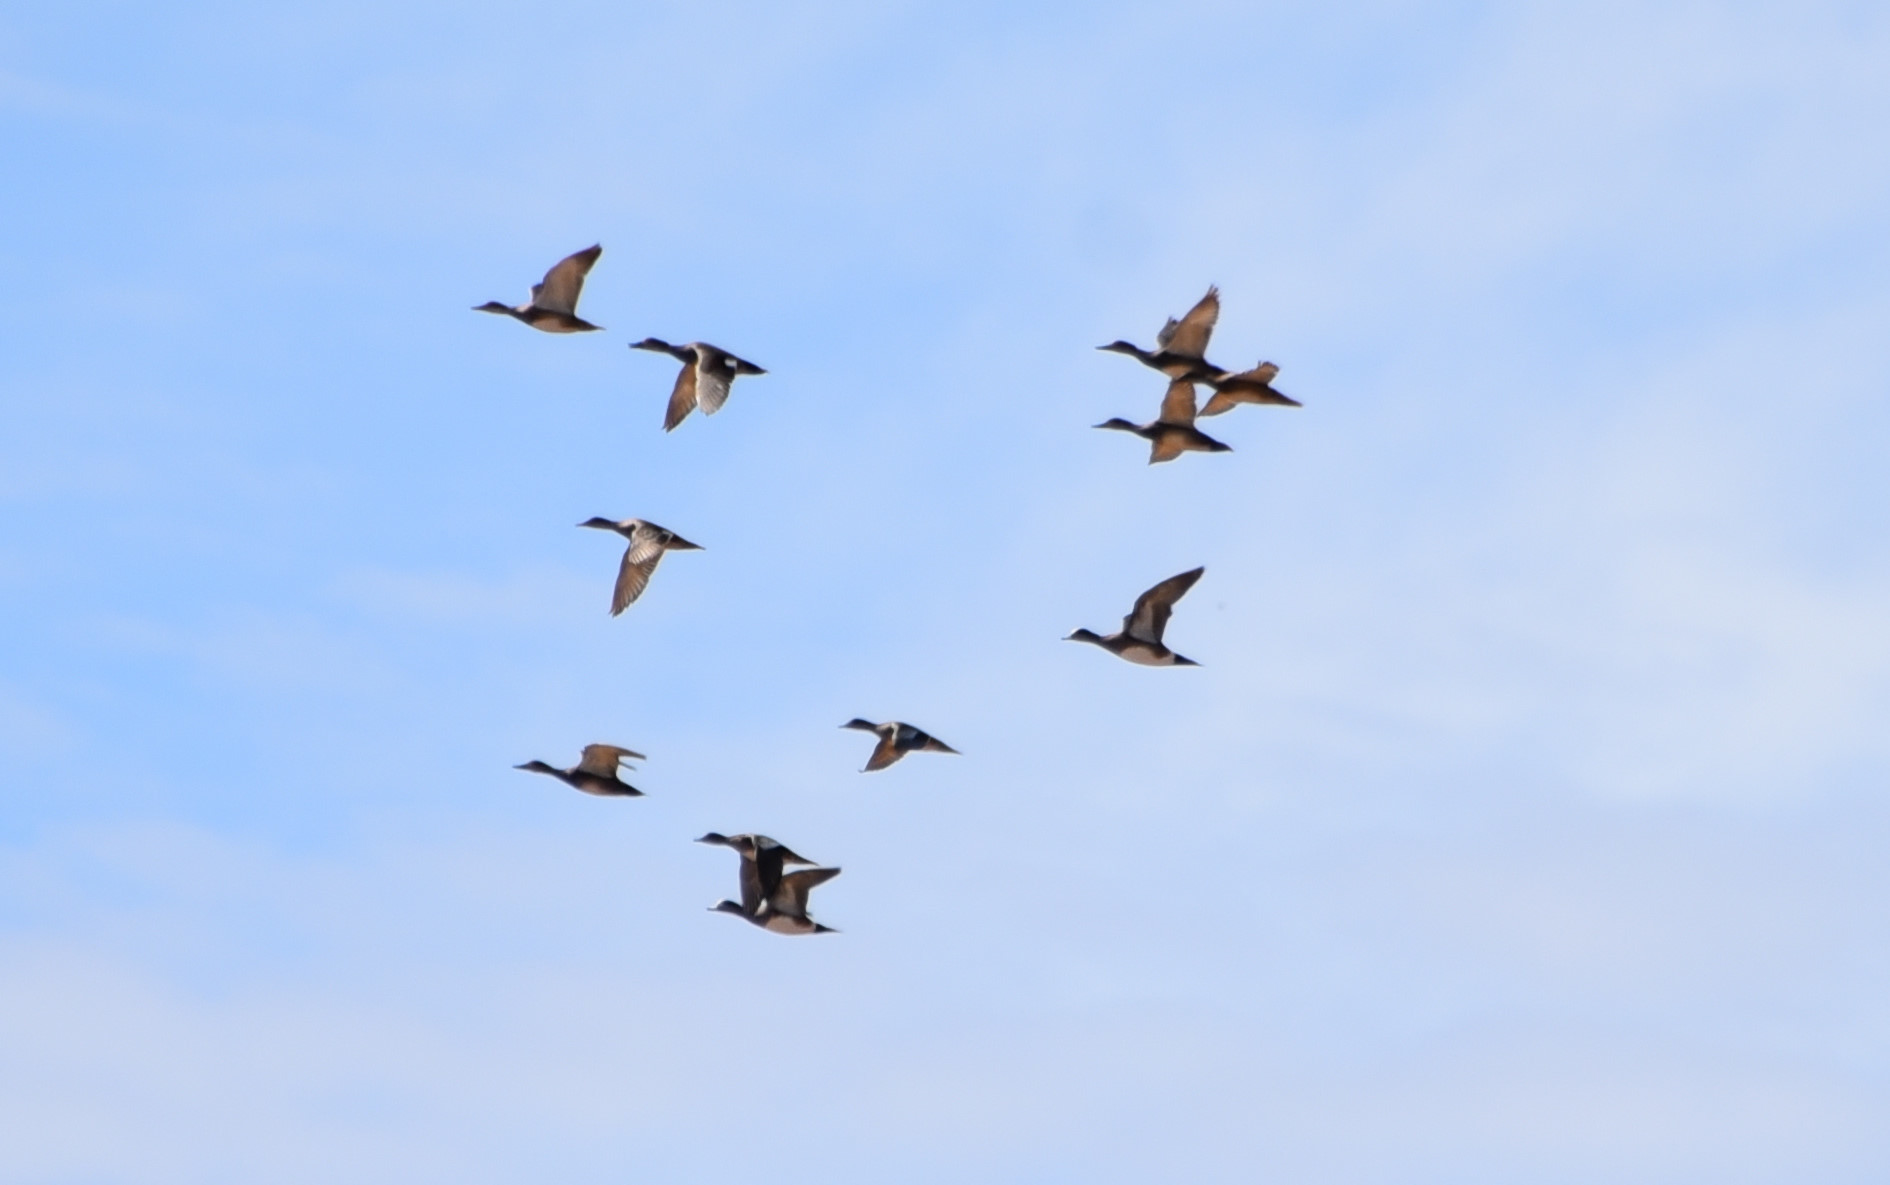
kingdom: Animalia
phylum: Chordata
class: Aves
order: Anseriformes
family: Anatidae
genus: Mareca
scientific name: Mareca americana
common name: American wigeon
